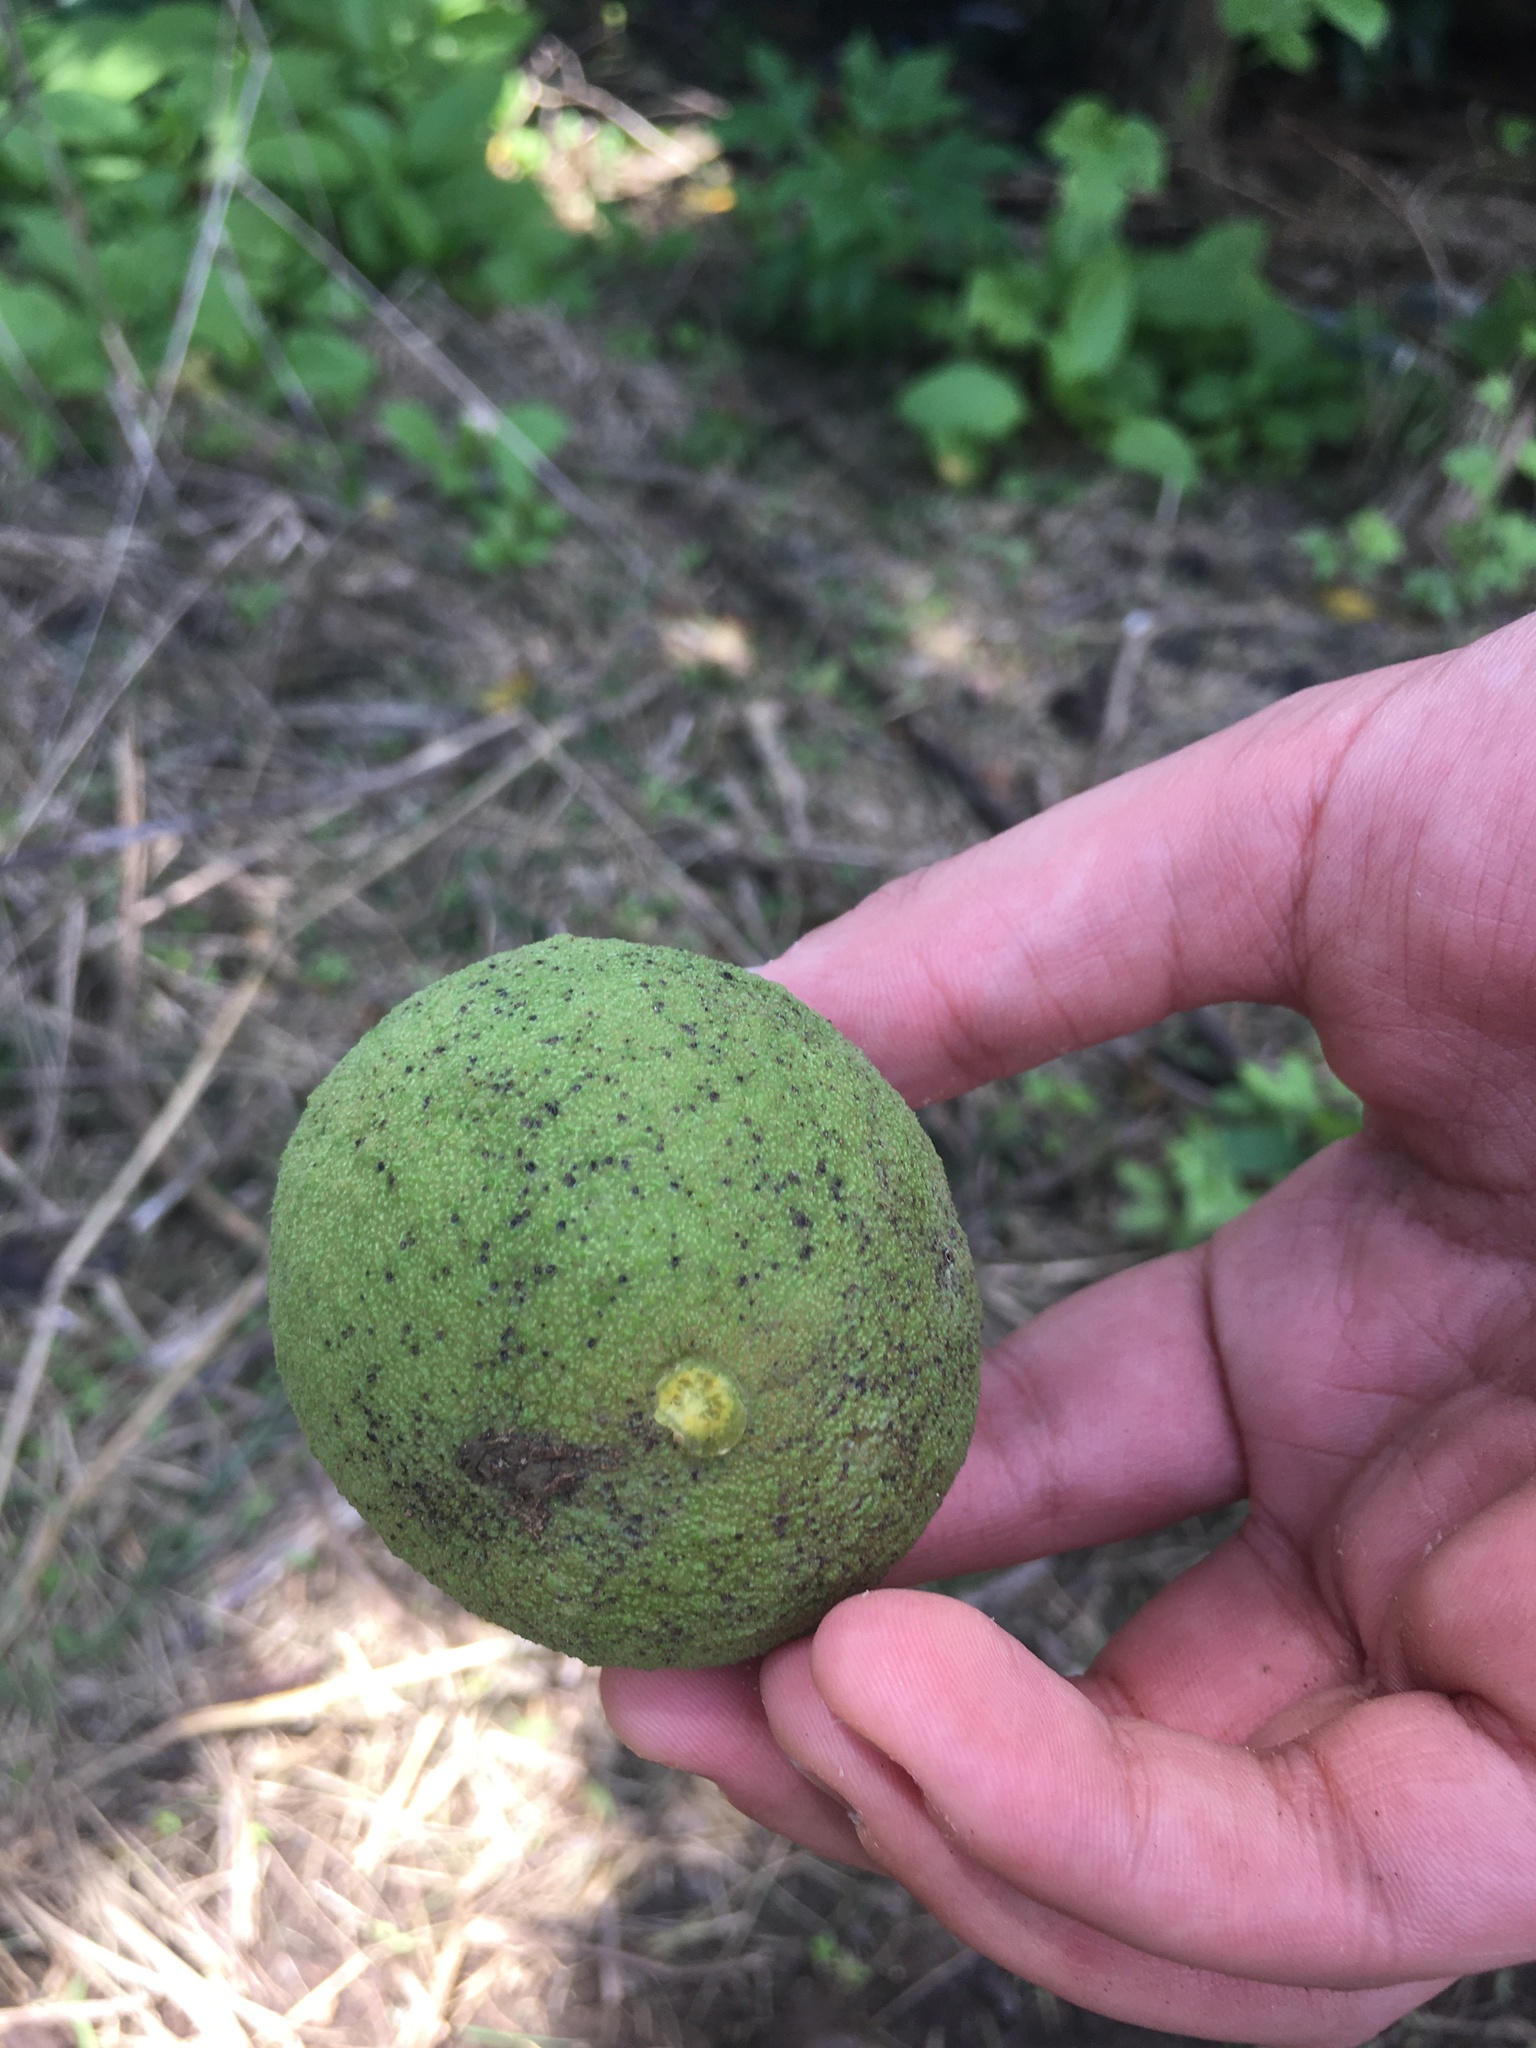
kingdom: Plantae
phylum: Tracheophyta
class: Magnoliopsida
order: Fagales
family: Juglandaceae
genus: Juglans
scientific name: Juglans nigra
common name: Black walnut
